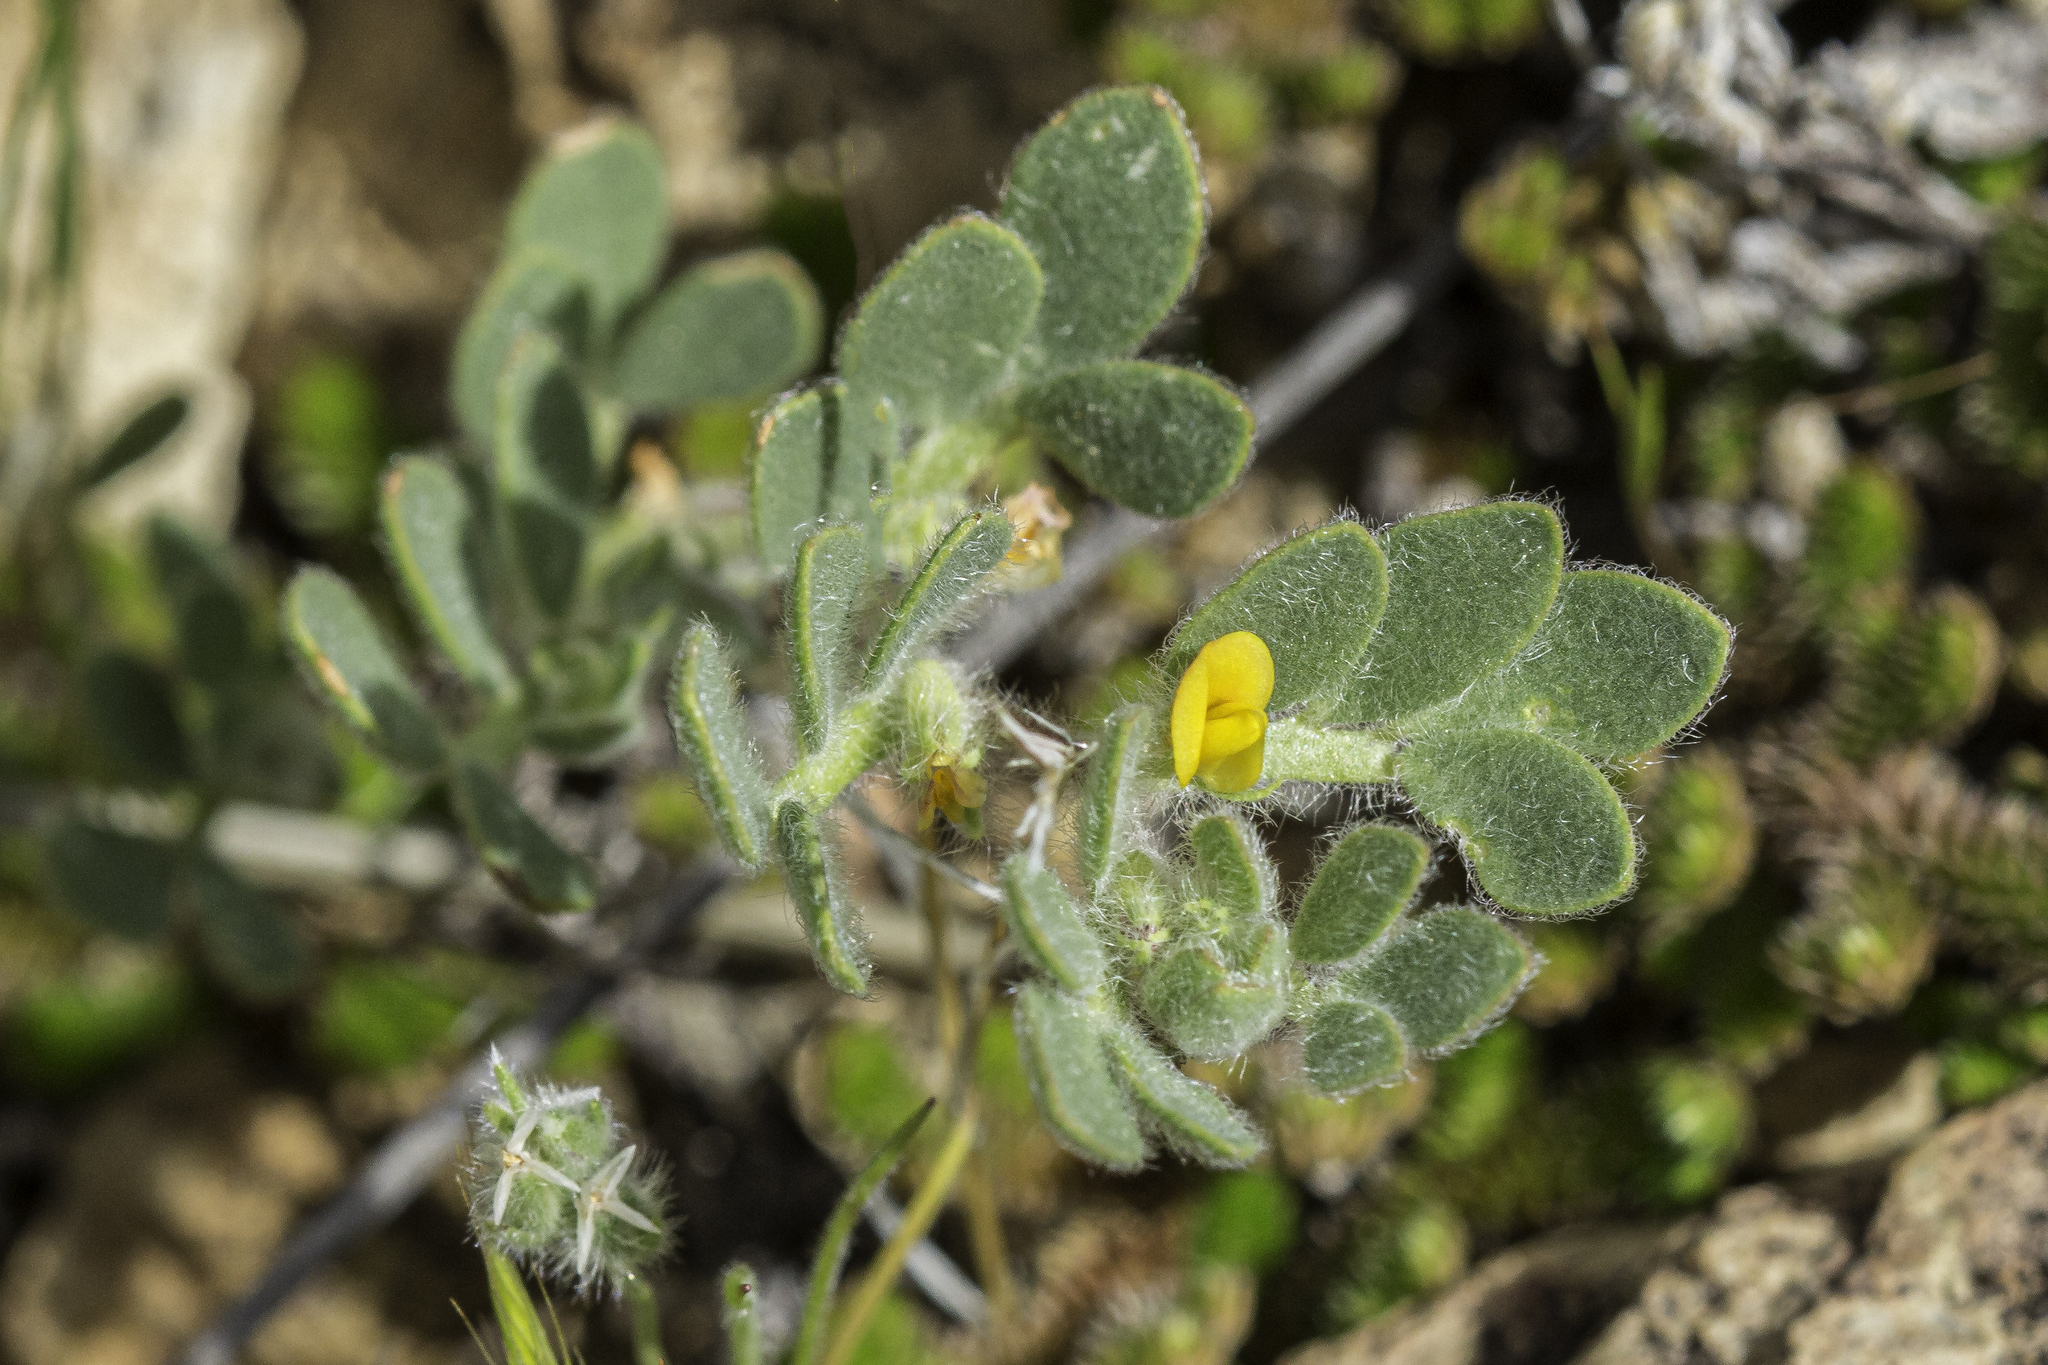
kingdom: Plantae
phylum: Tracheophyta
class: Magnoliopsida
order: Fabales
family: Fabaceae
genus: Acmispon
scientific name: Acmispon brachycarpus
